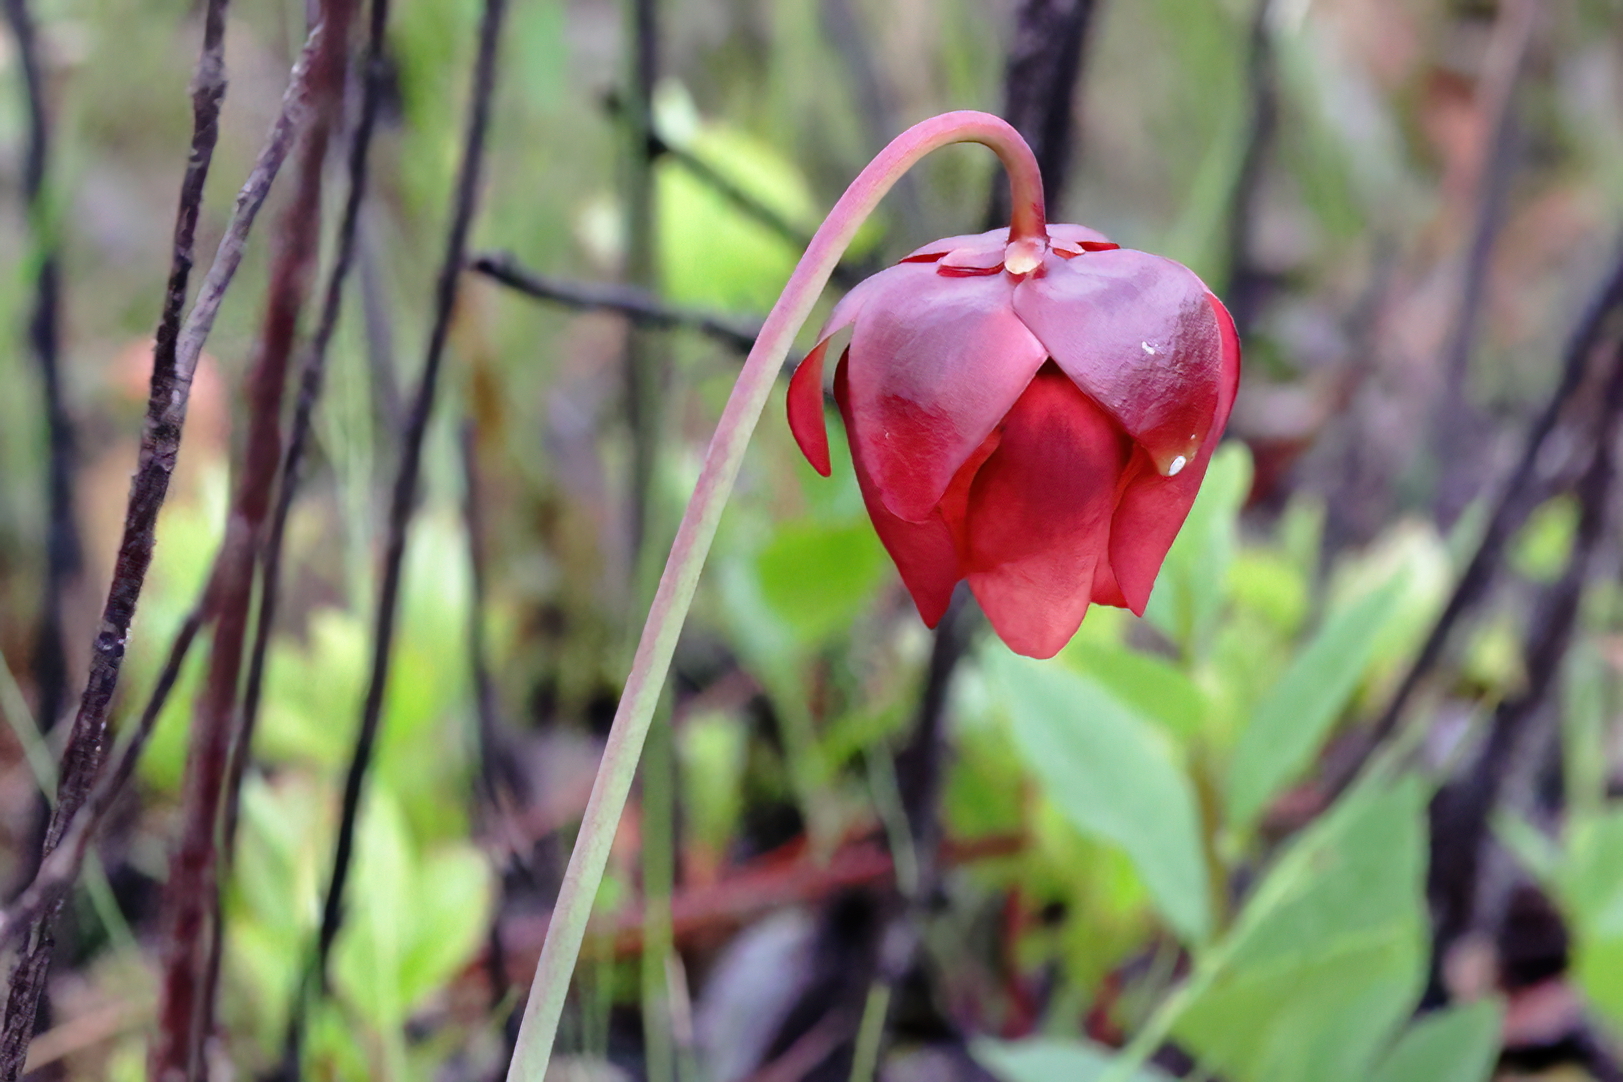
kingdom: Plantae
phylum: Tracheophyta
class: Magnoliopsida
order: Ericales
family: Sarraceniaceae
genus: Sarracenia
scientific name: Sarracenia psittacina
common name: Parrot pitcherplant
